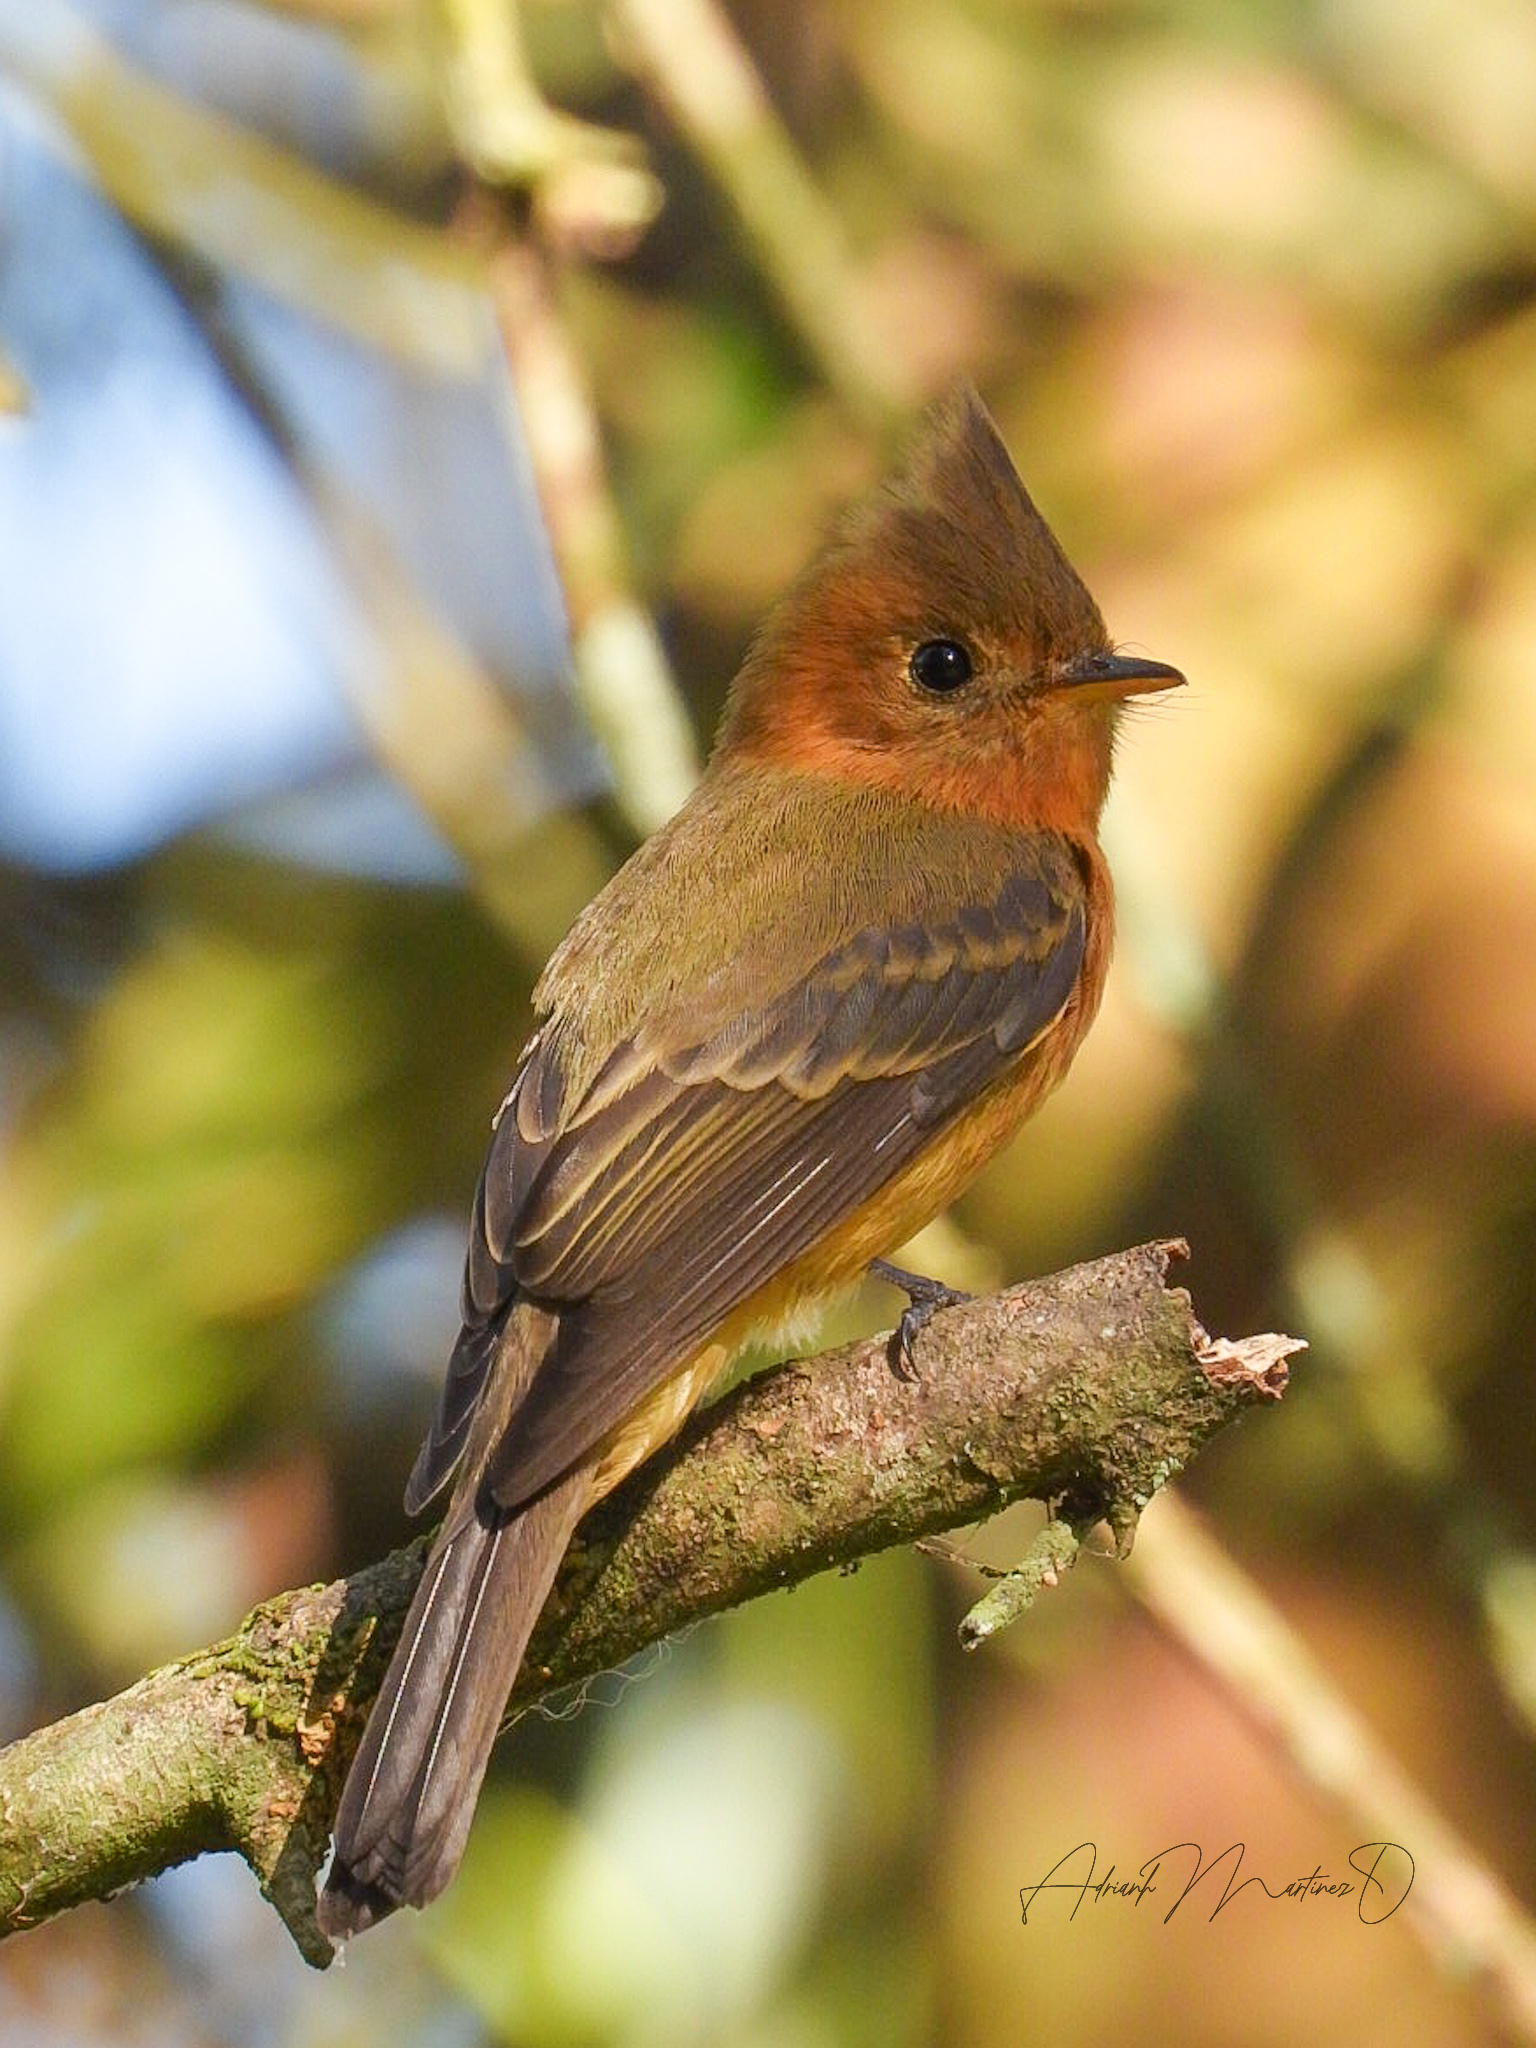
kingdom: Animalia
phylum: Chordata
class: Aves
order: Passeriformes
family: Tyrannidae
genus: Mitrephanes
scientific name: Mitrephanes phaeocercus
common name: Northern tufted flycatcher
